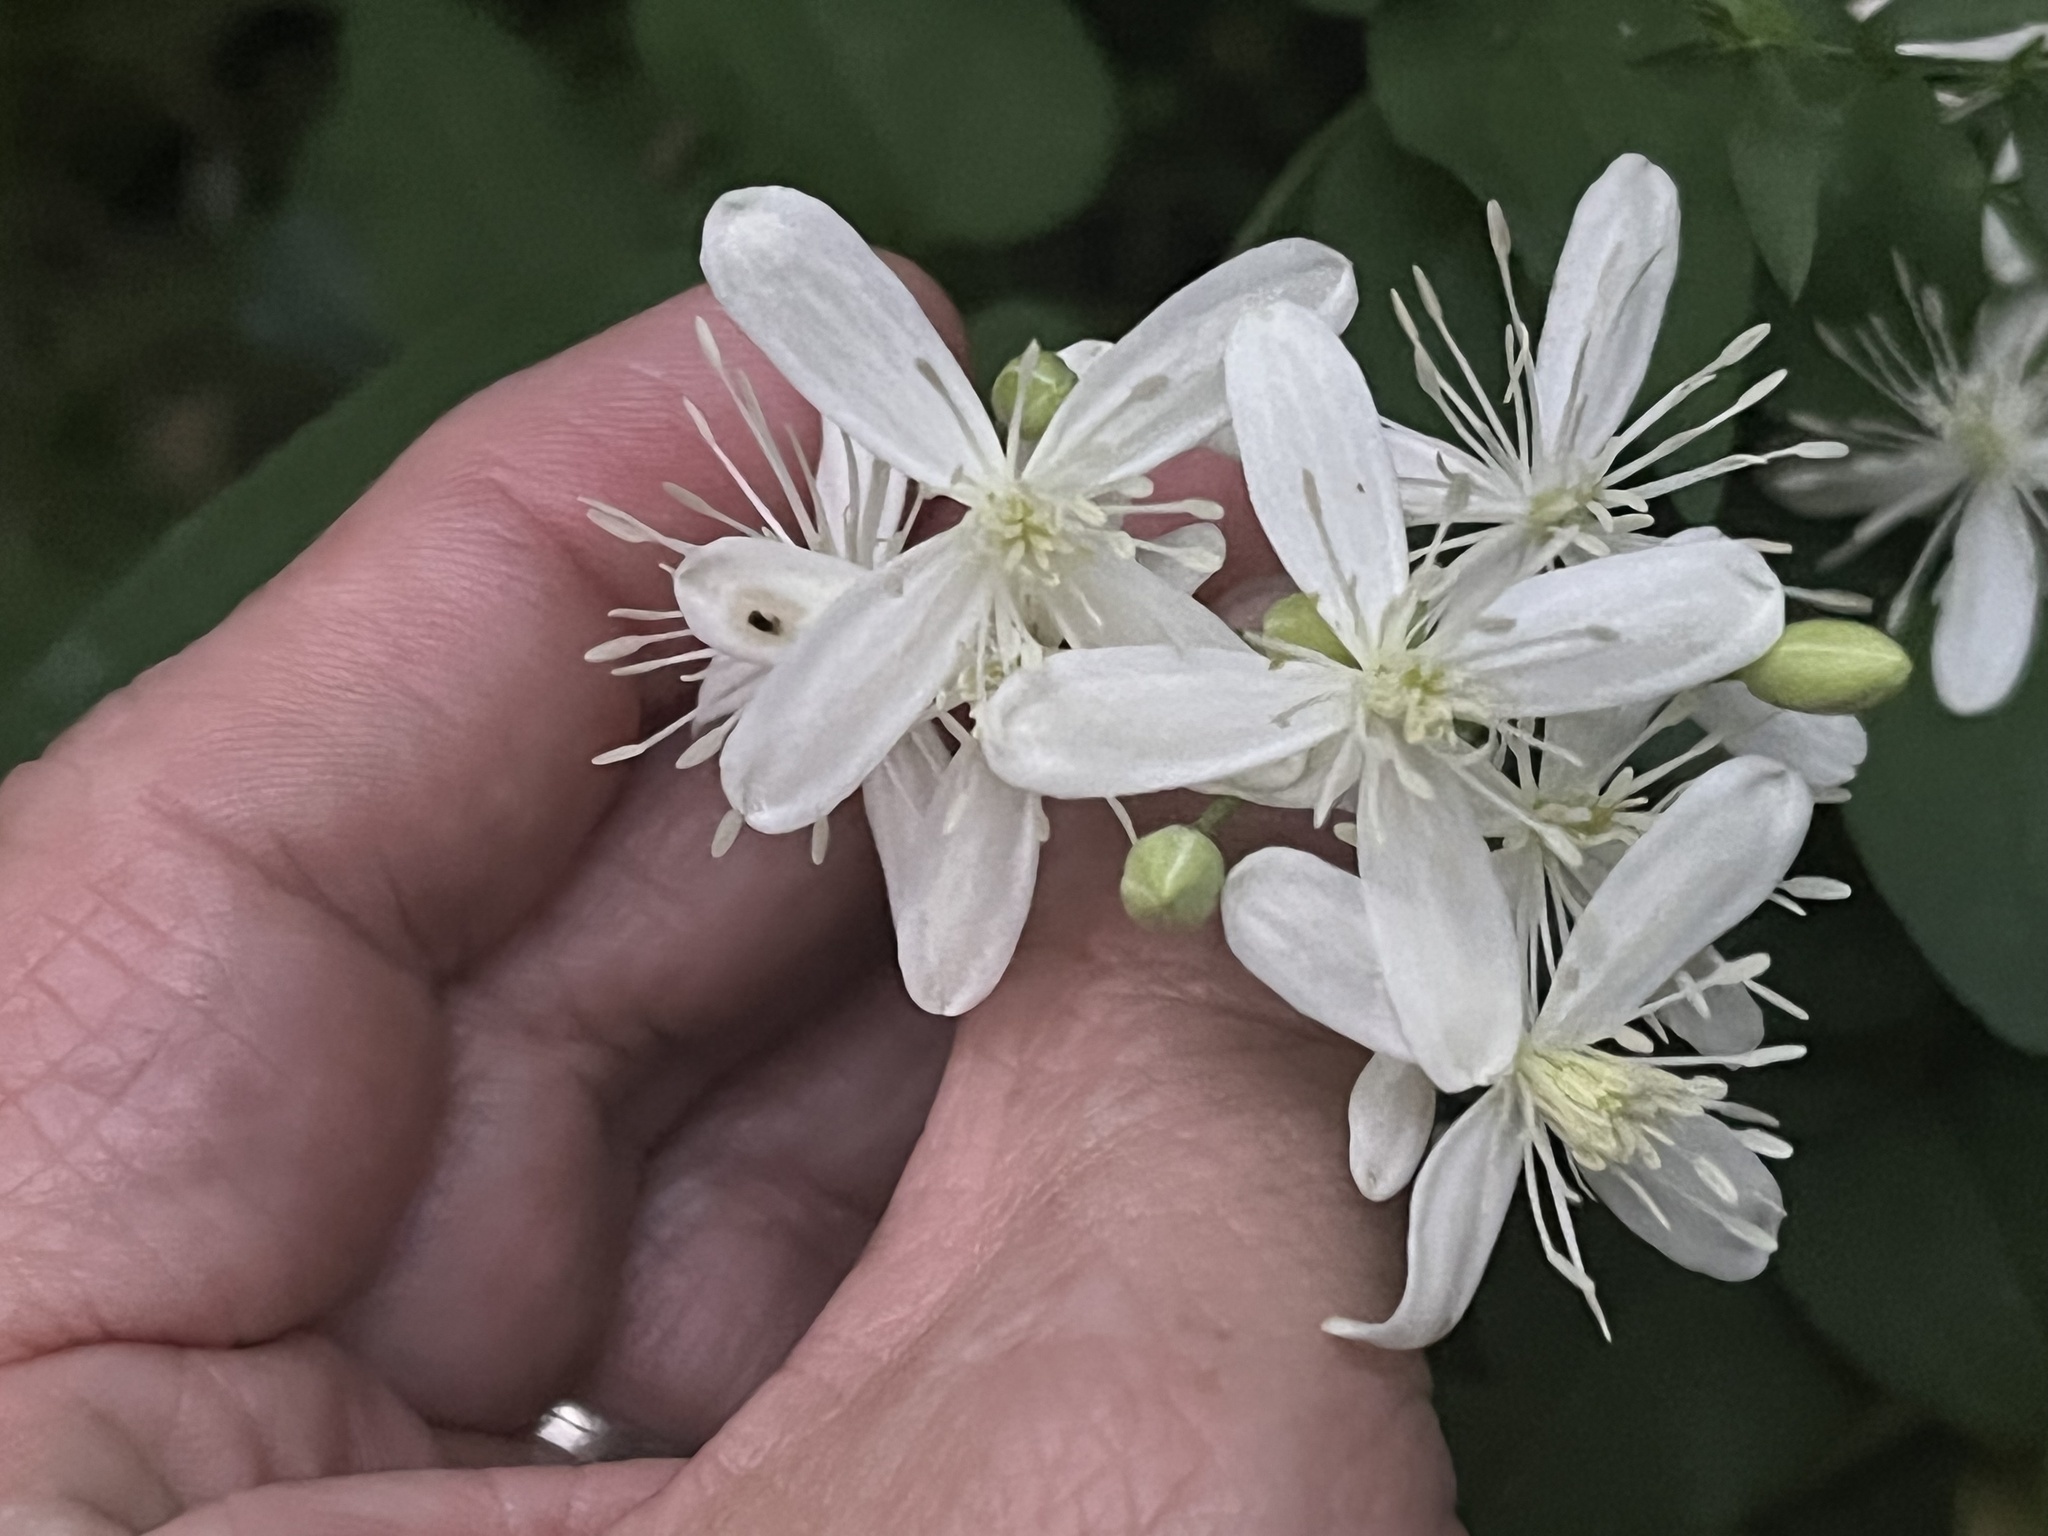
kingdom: Plantae
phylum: Tracheophyta
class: Magnoliopsida
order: Ranunculales
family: Ranunculaceae
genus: Clematis
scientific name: Clematis terniflora
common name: Sweet autumn clematis
